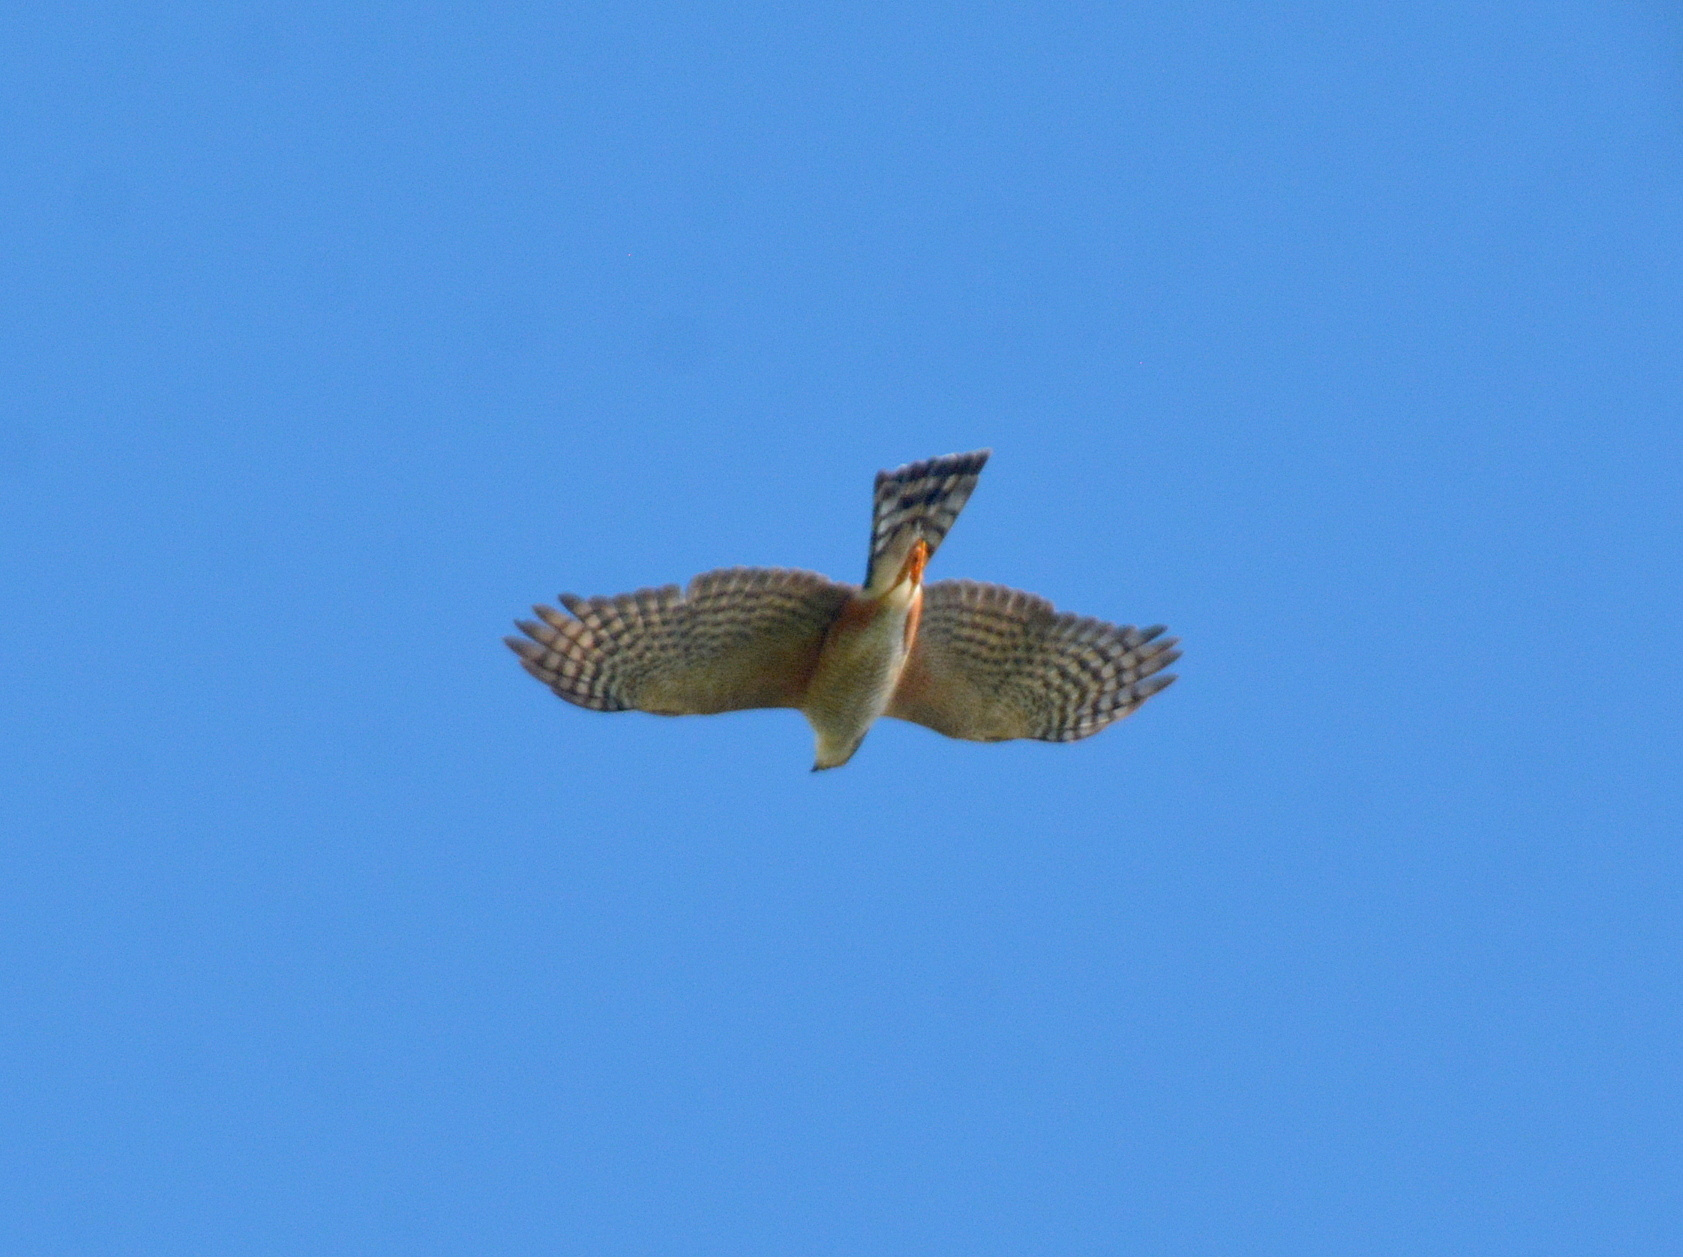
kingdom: Animalia
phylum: Chordata
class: Aves
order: Accipitriformes
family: Accipitridae
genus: Accipiter
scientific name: Accipiter striatus
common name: Sharp-shinned hawk
